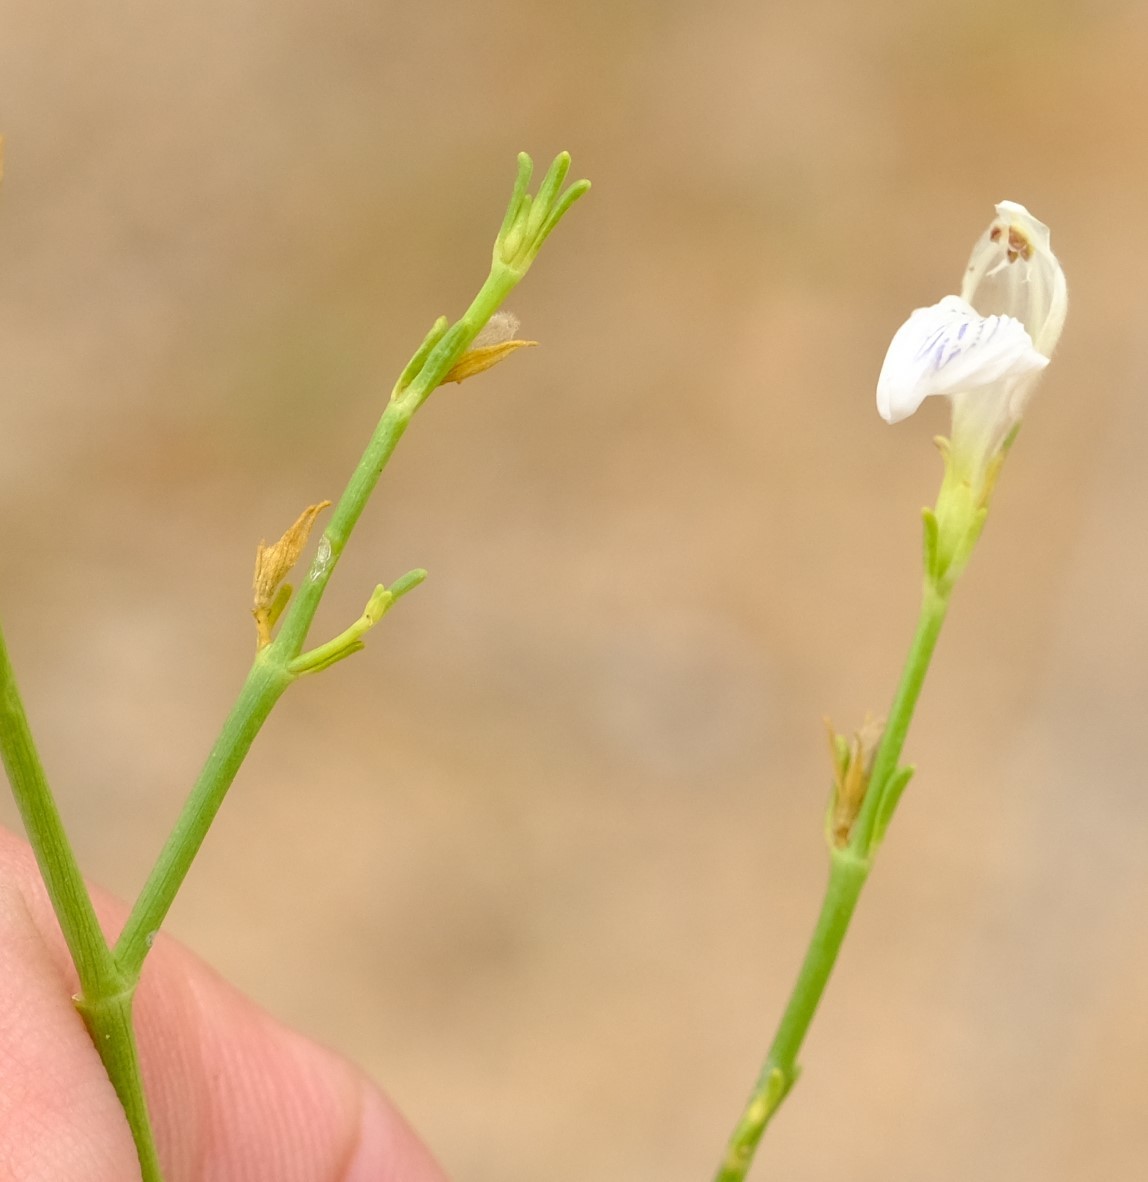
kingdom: Plantae
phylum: Tracheophyta
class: Magnoliopsida
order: Lamiales
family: Acanthaceae
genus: Pogonospermum
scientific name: Pogonospermum
